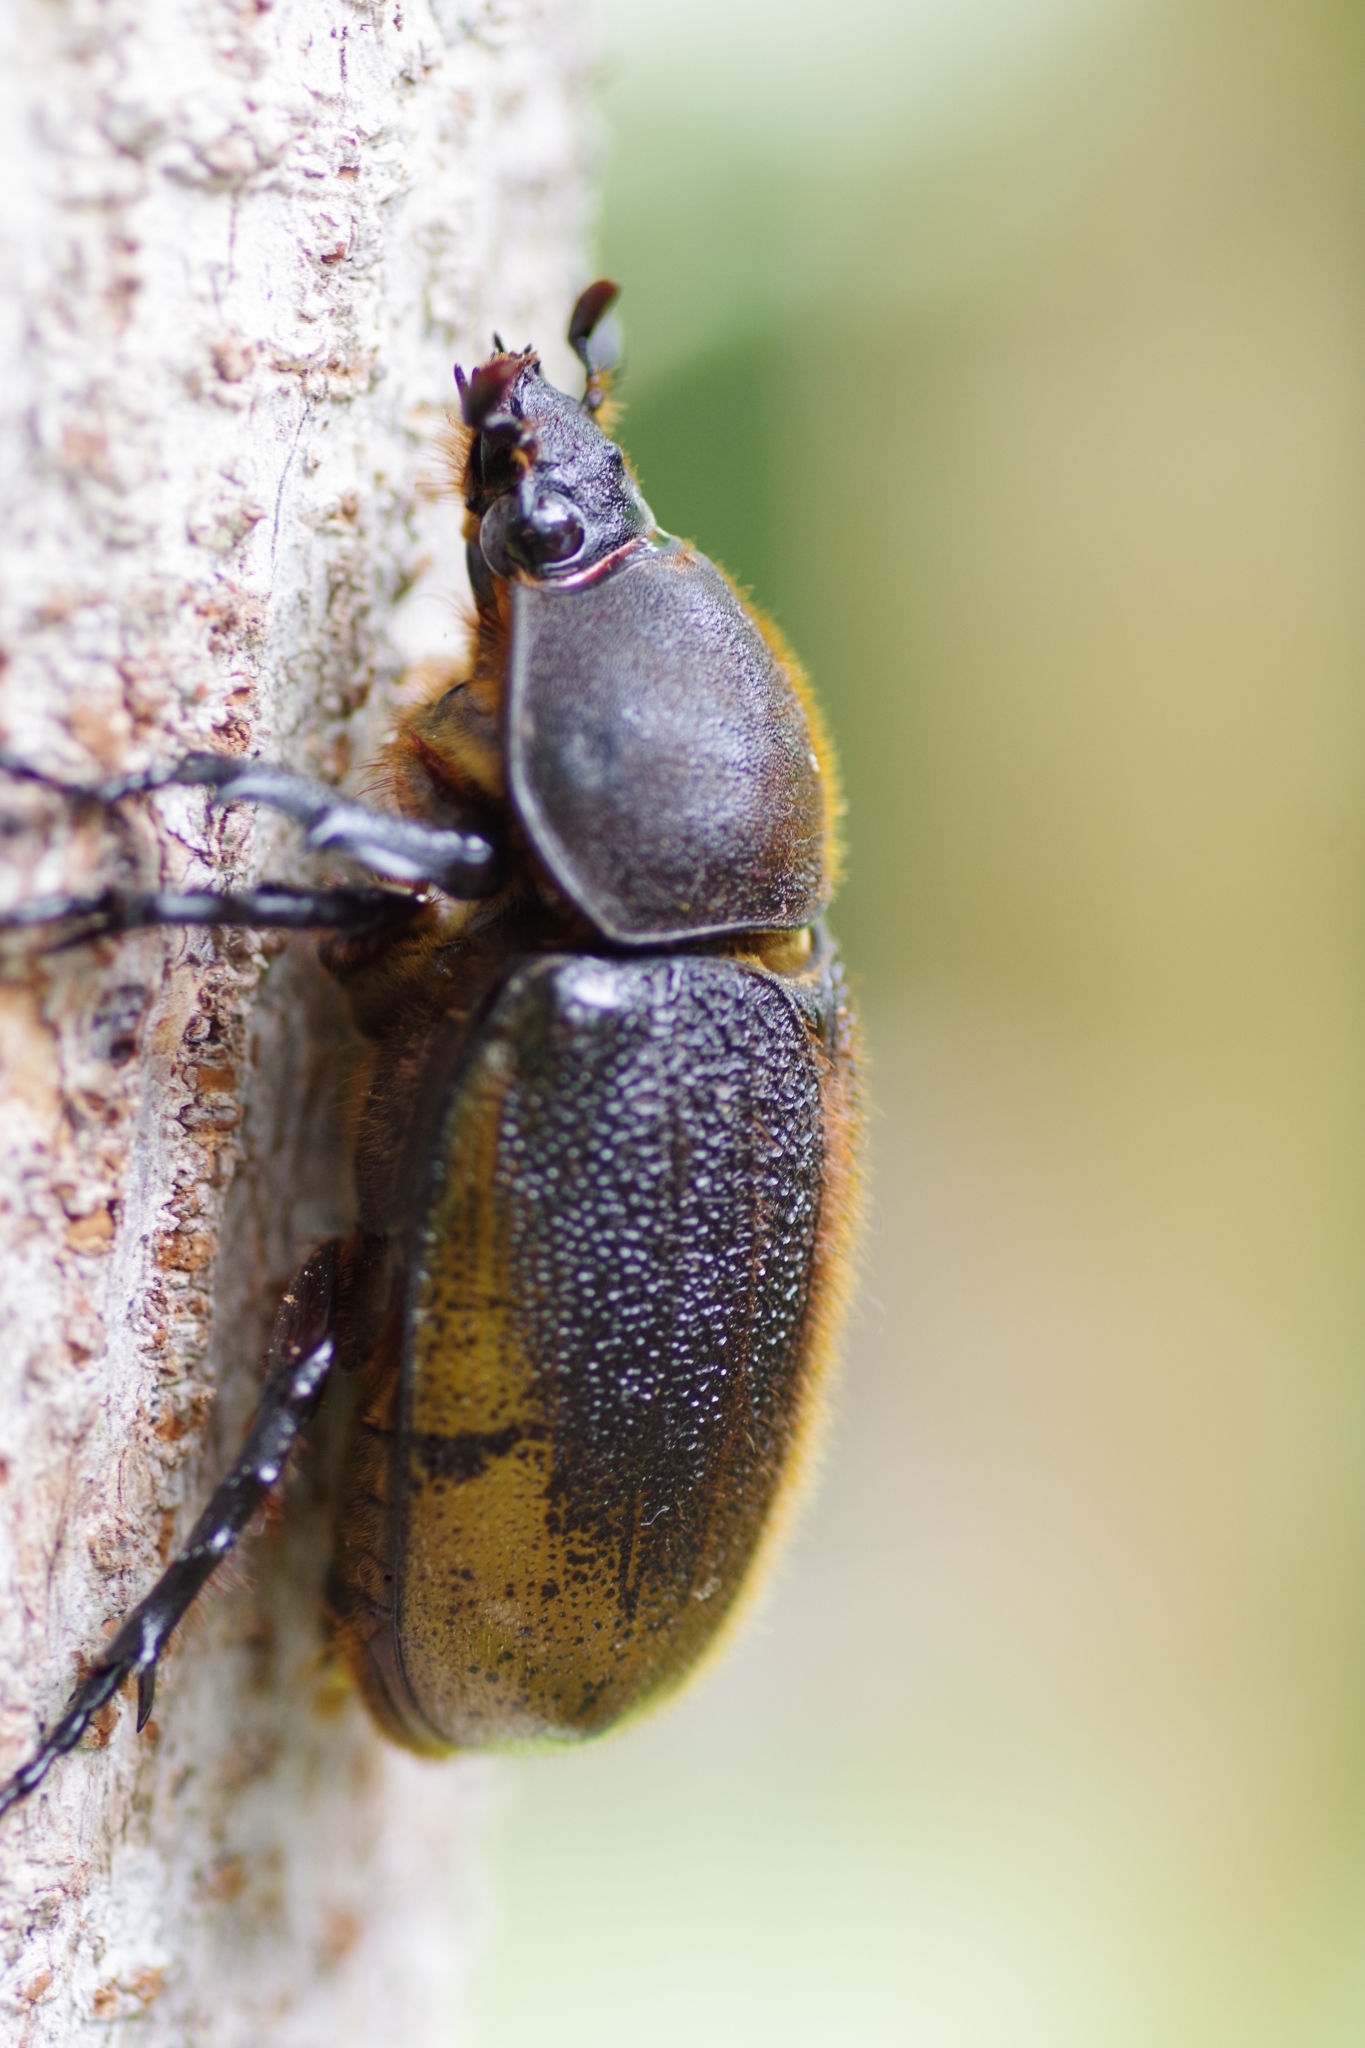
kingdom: Animalia
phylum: Arthropoda
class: Insecta
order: Coleoptera
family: Scarabaeidae
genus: Dynastes
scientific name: Dynastes
